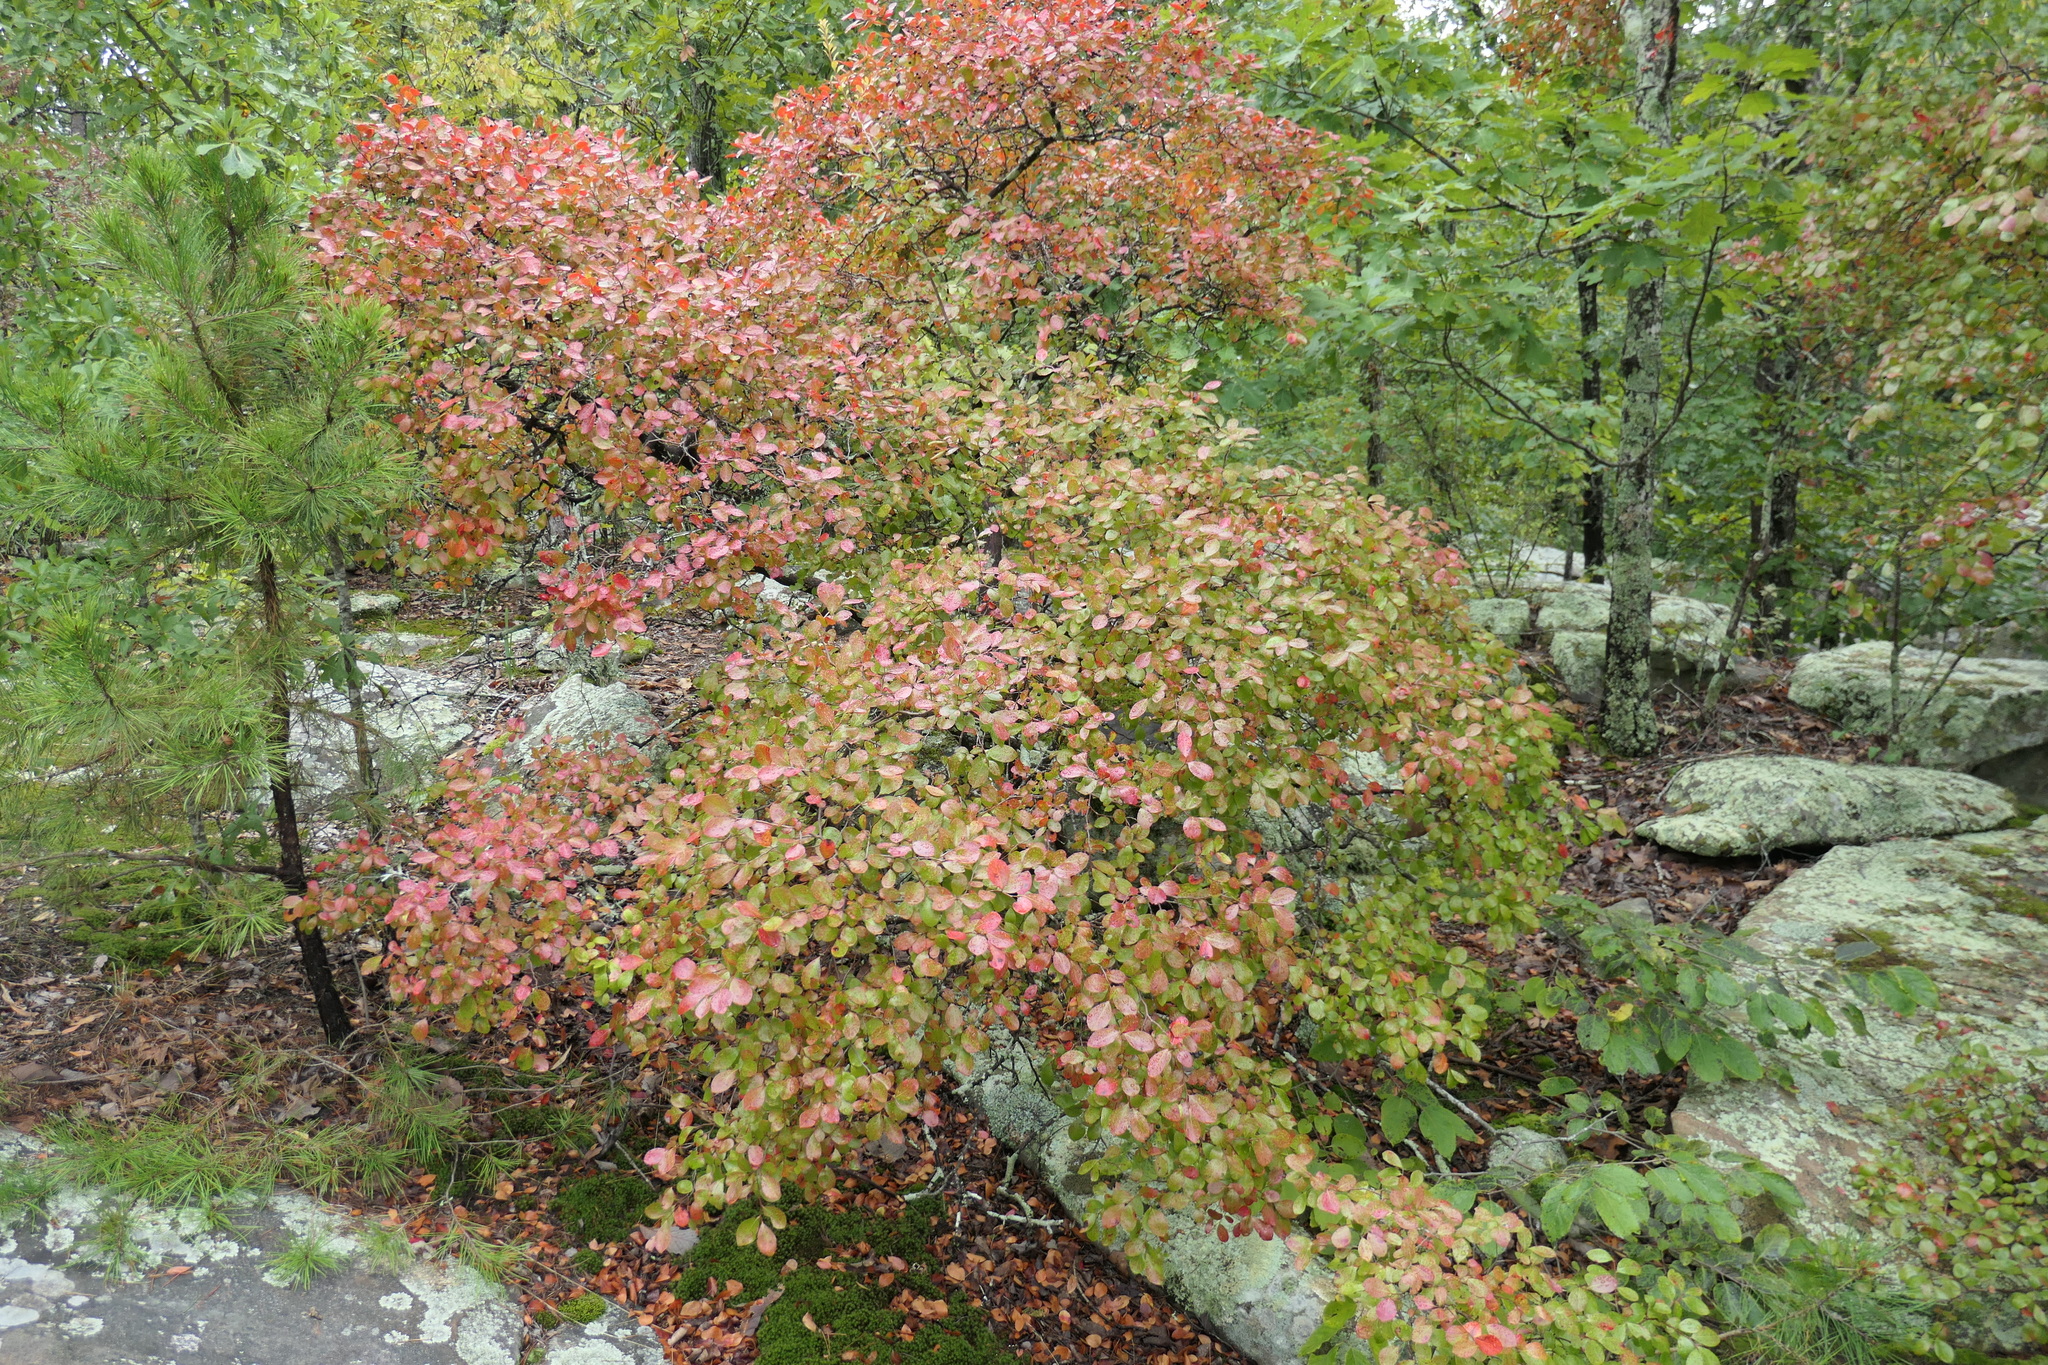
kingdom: Plantae
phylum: Tracheophyta
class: Magnoliopsida
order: Ericales
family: Ericaceae
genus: Vaccinium
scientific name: Vaccinium arboreum
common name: Farkleberry
